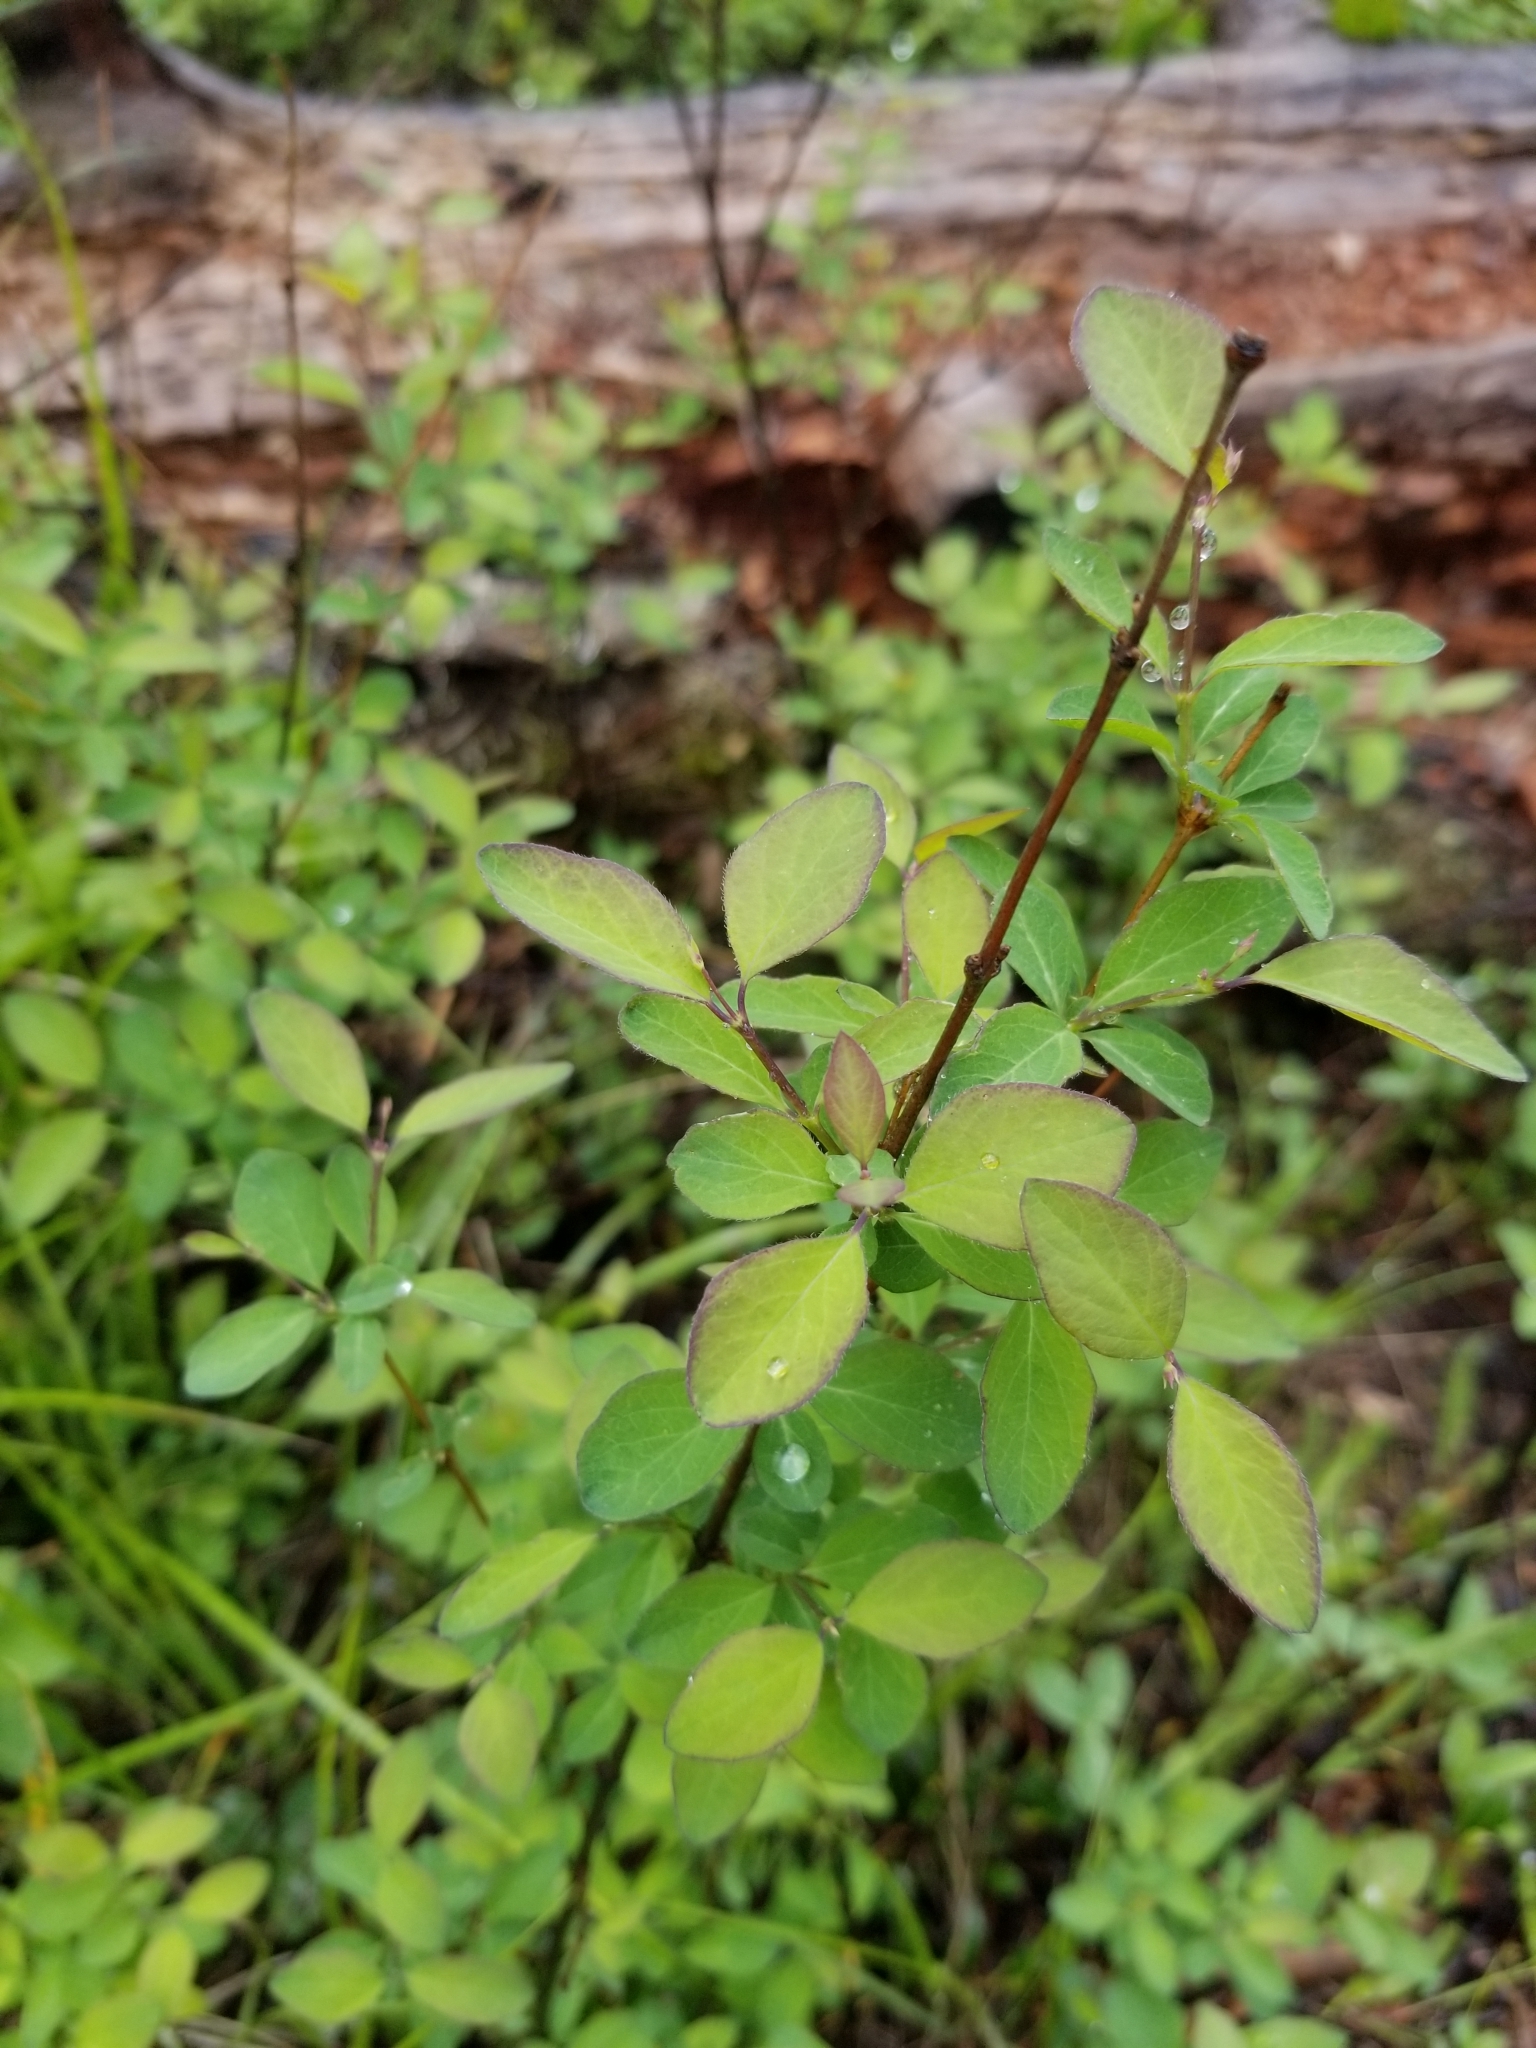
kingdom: Plantae
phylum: Tracheophyta
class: Magnoliopsida
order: Dipsacales
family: Caprifoliaceae
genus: Symphoricarpos
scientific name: Symphoricarpos albus
